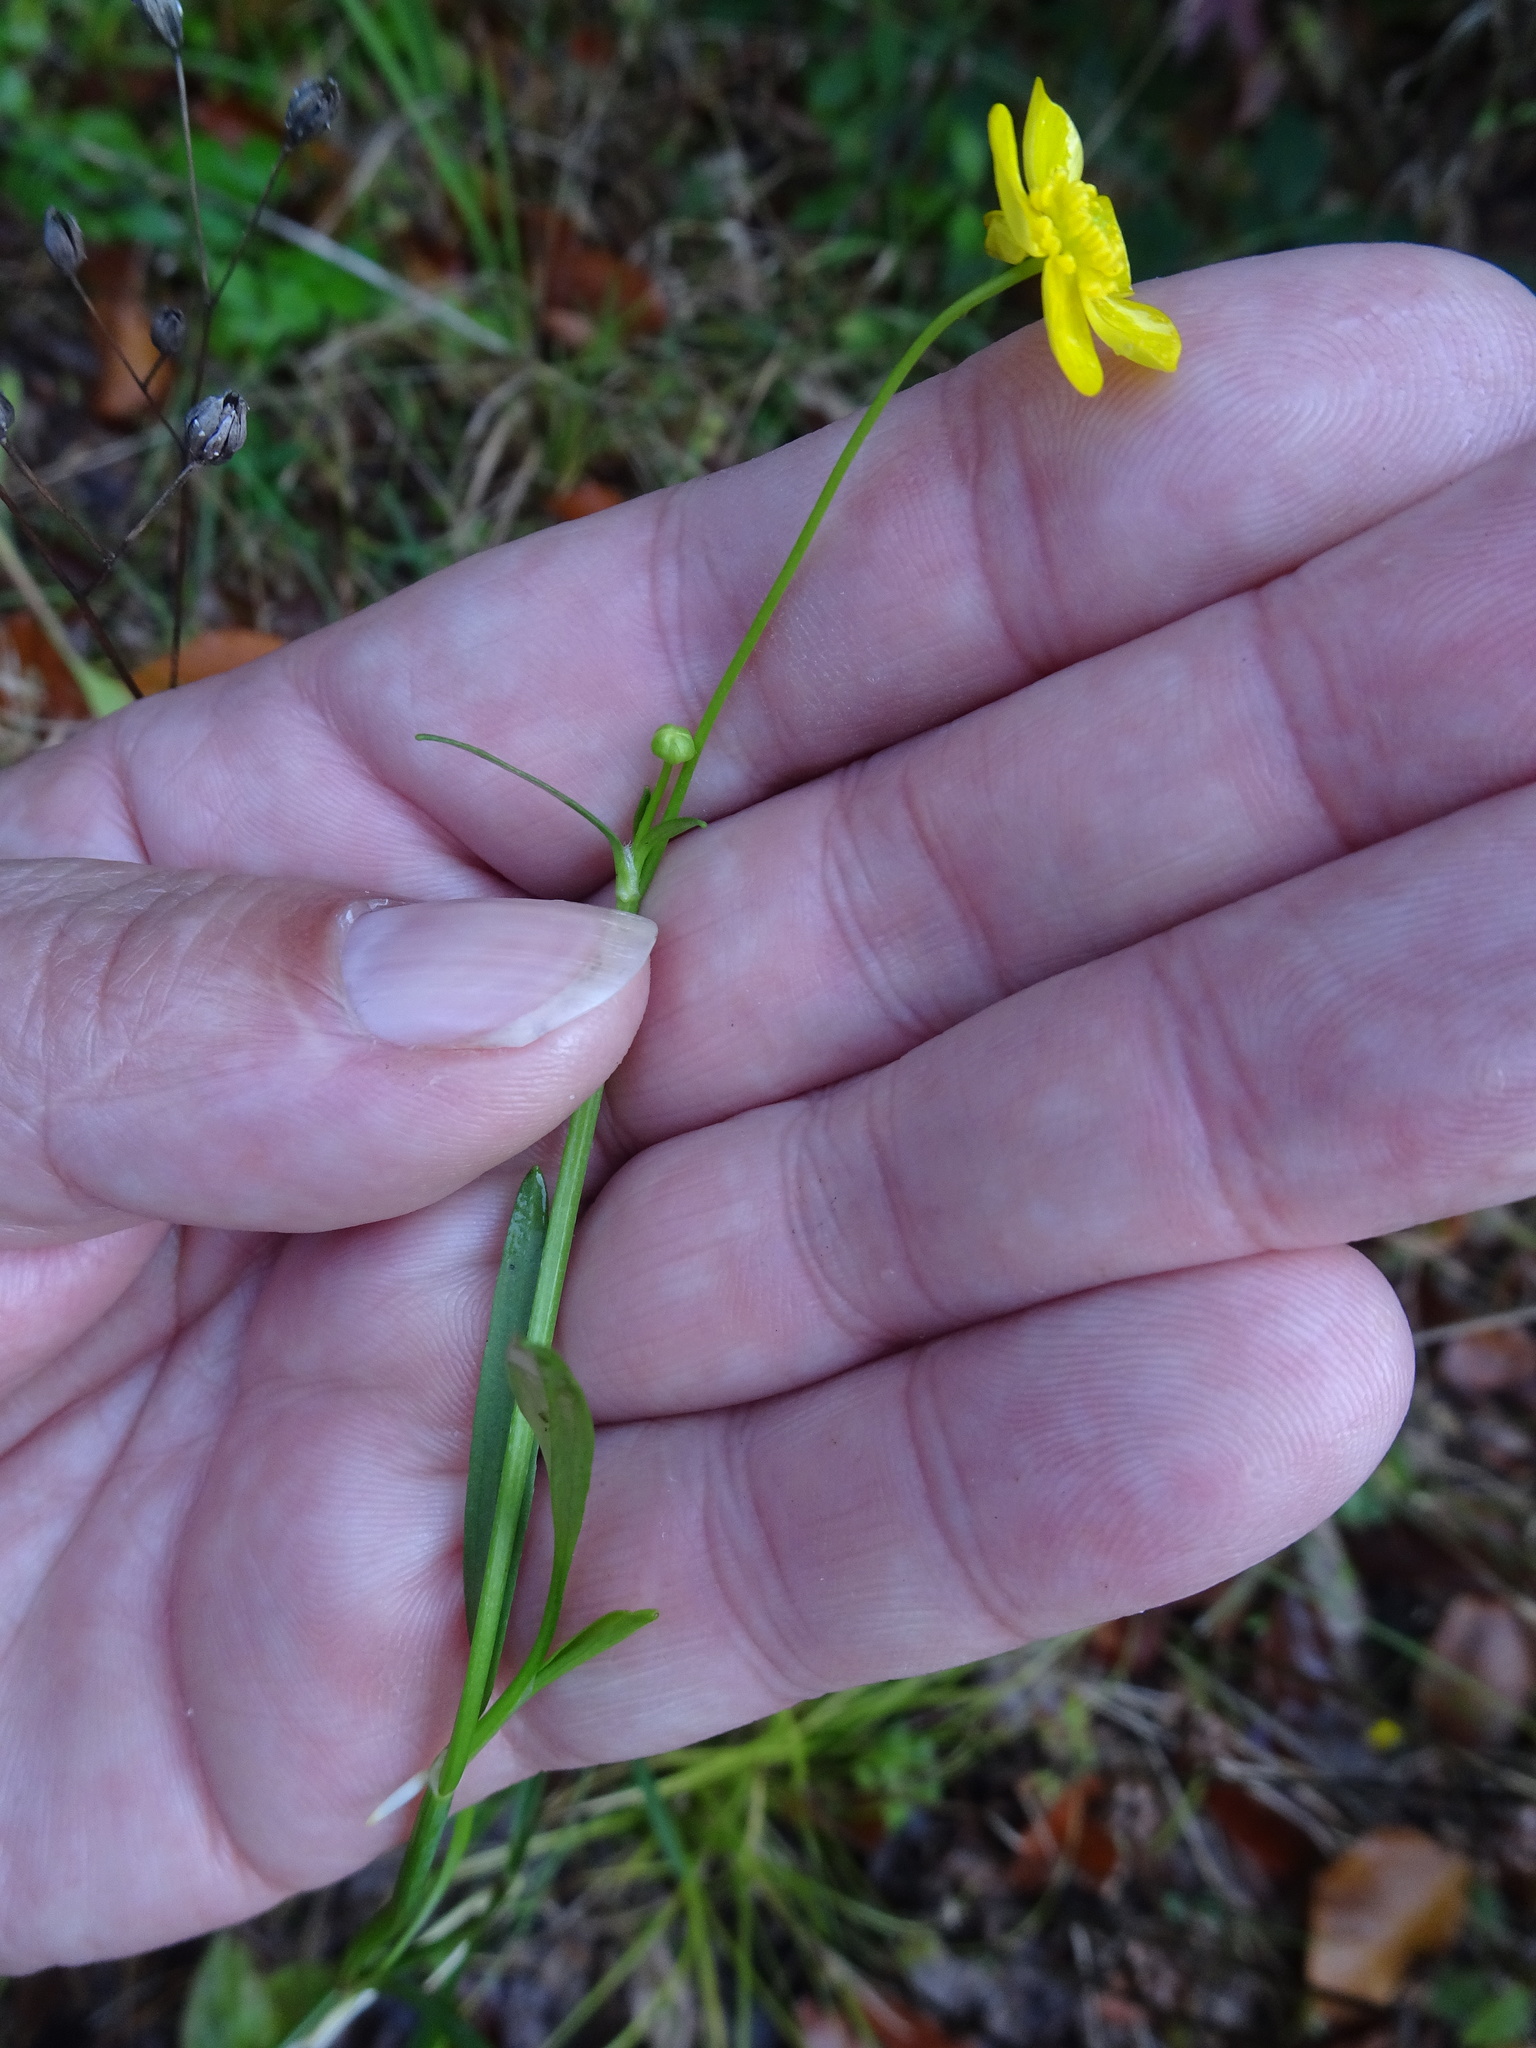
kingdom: Plantae
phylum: Tracheophyta
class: Magnoliopsida
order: Ranunculales
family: Ranunculaceae
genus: Ranunculus
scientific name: Ranunculus flammula
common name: Lesser spearwort
